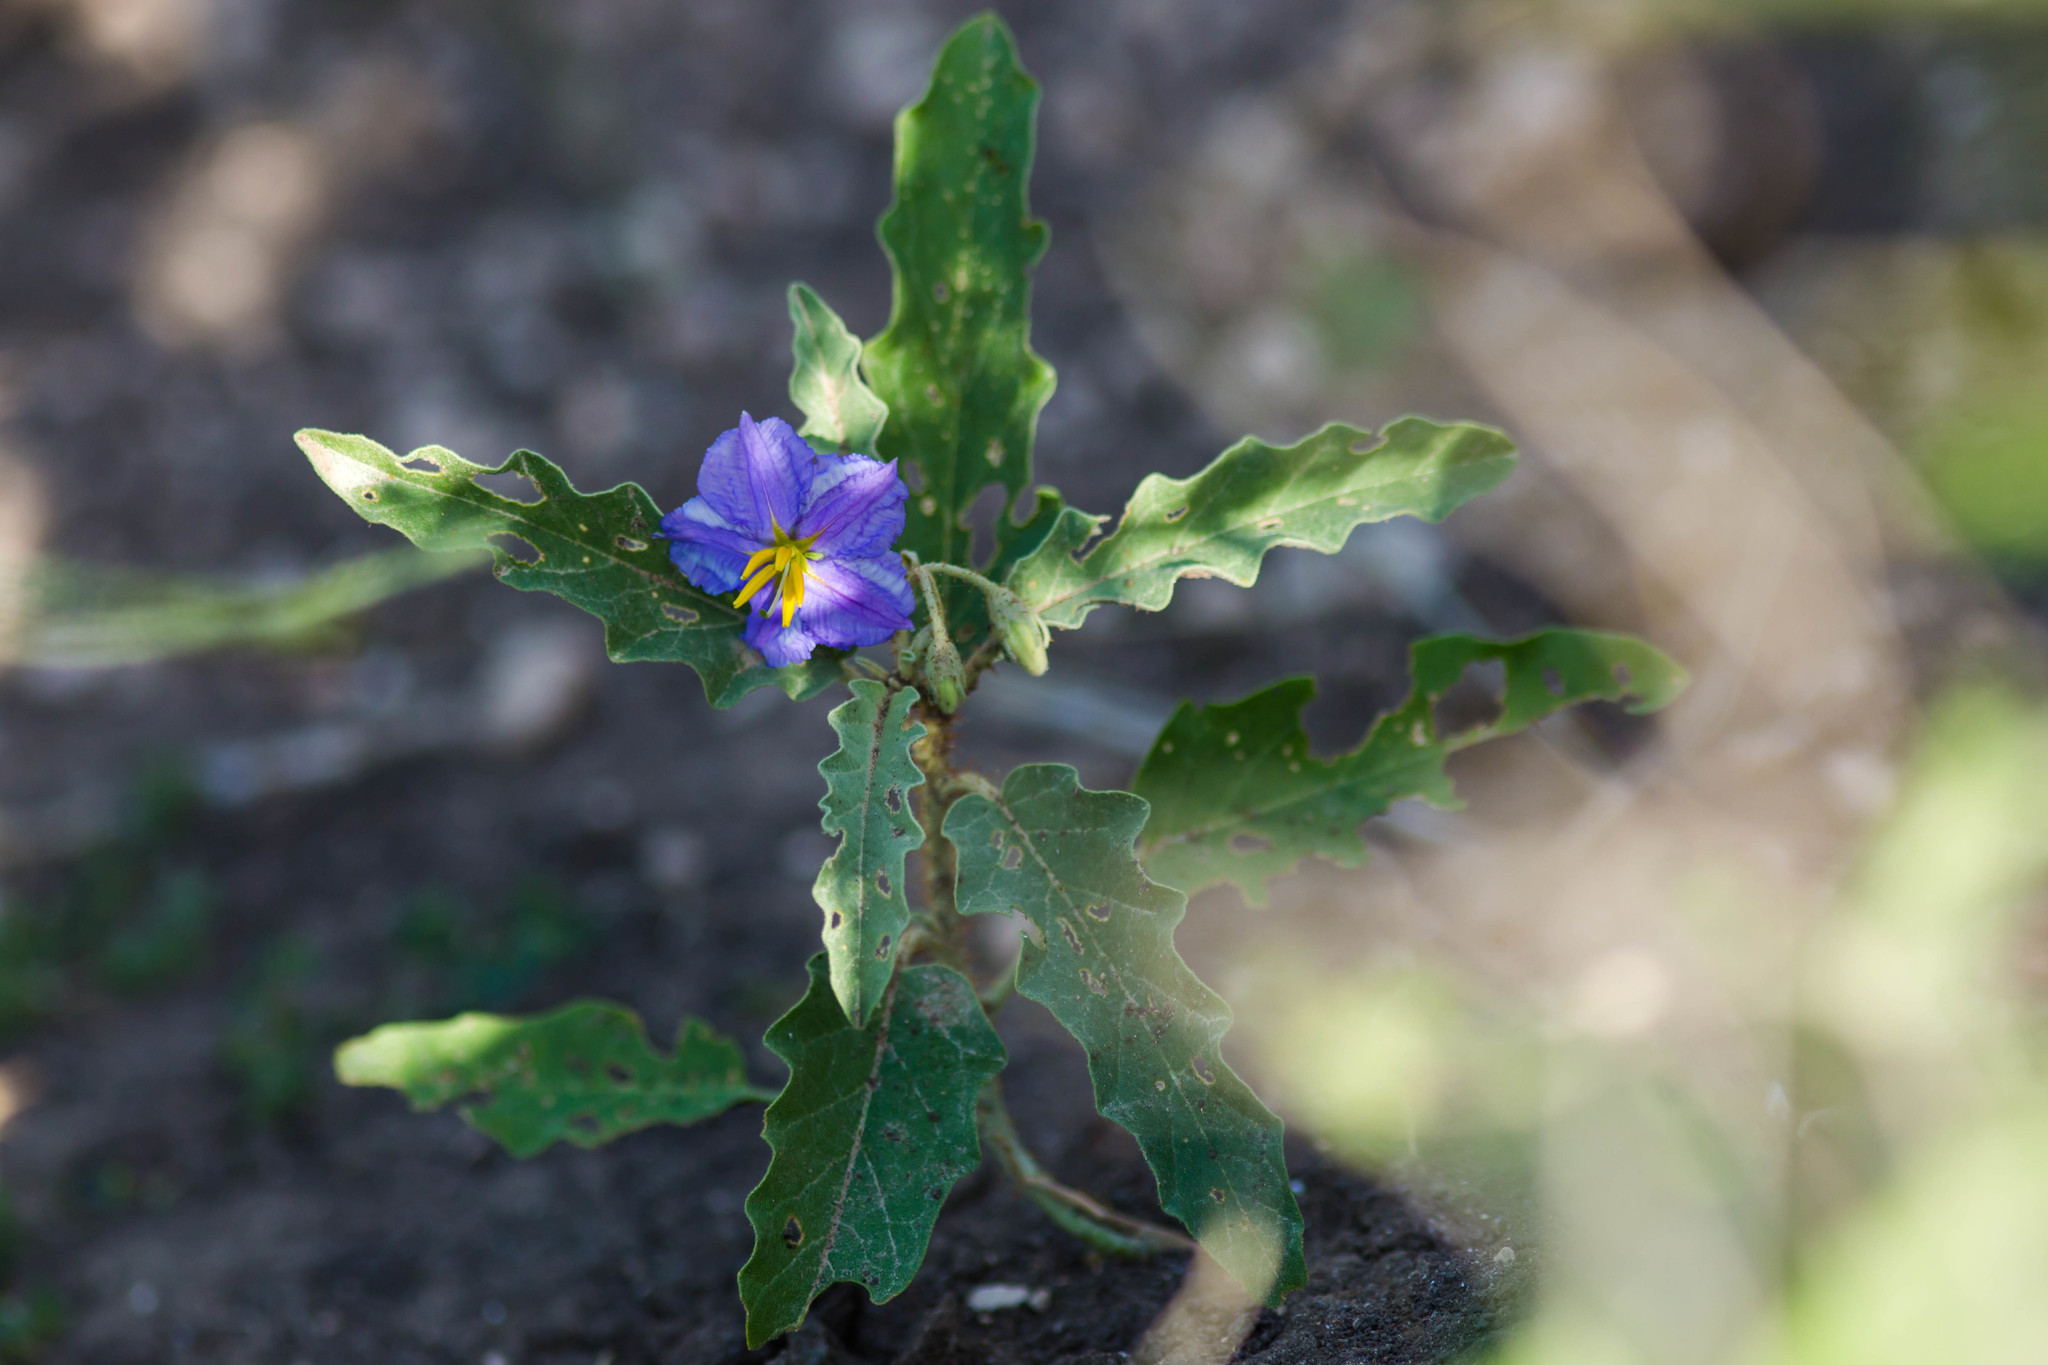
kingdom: Plantae
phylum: Tracheophyta
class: Magnoliopsida
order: Solanales
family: Solanaceae
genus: Solanum
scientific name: Solanum elaeagnifolium
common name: Silverleaf nightshade
